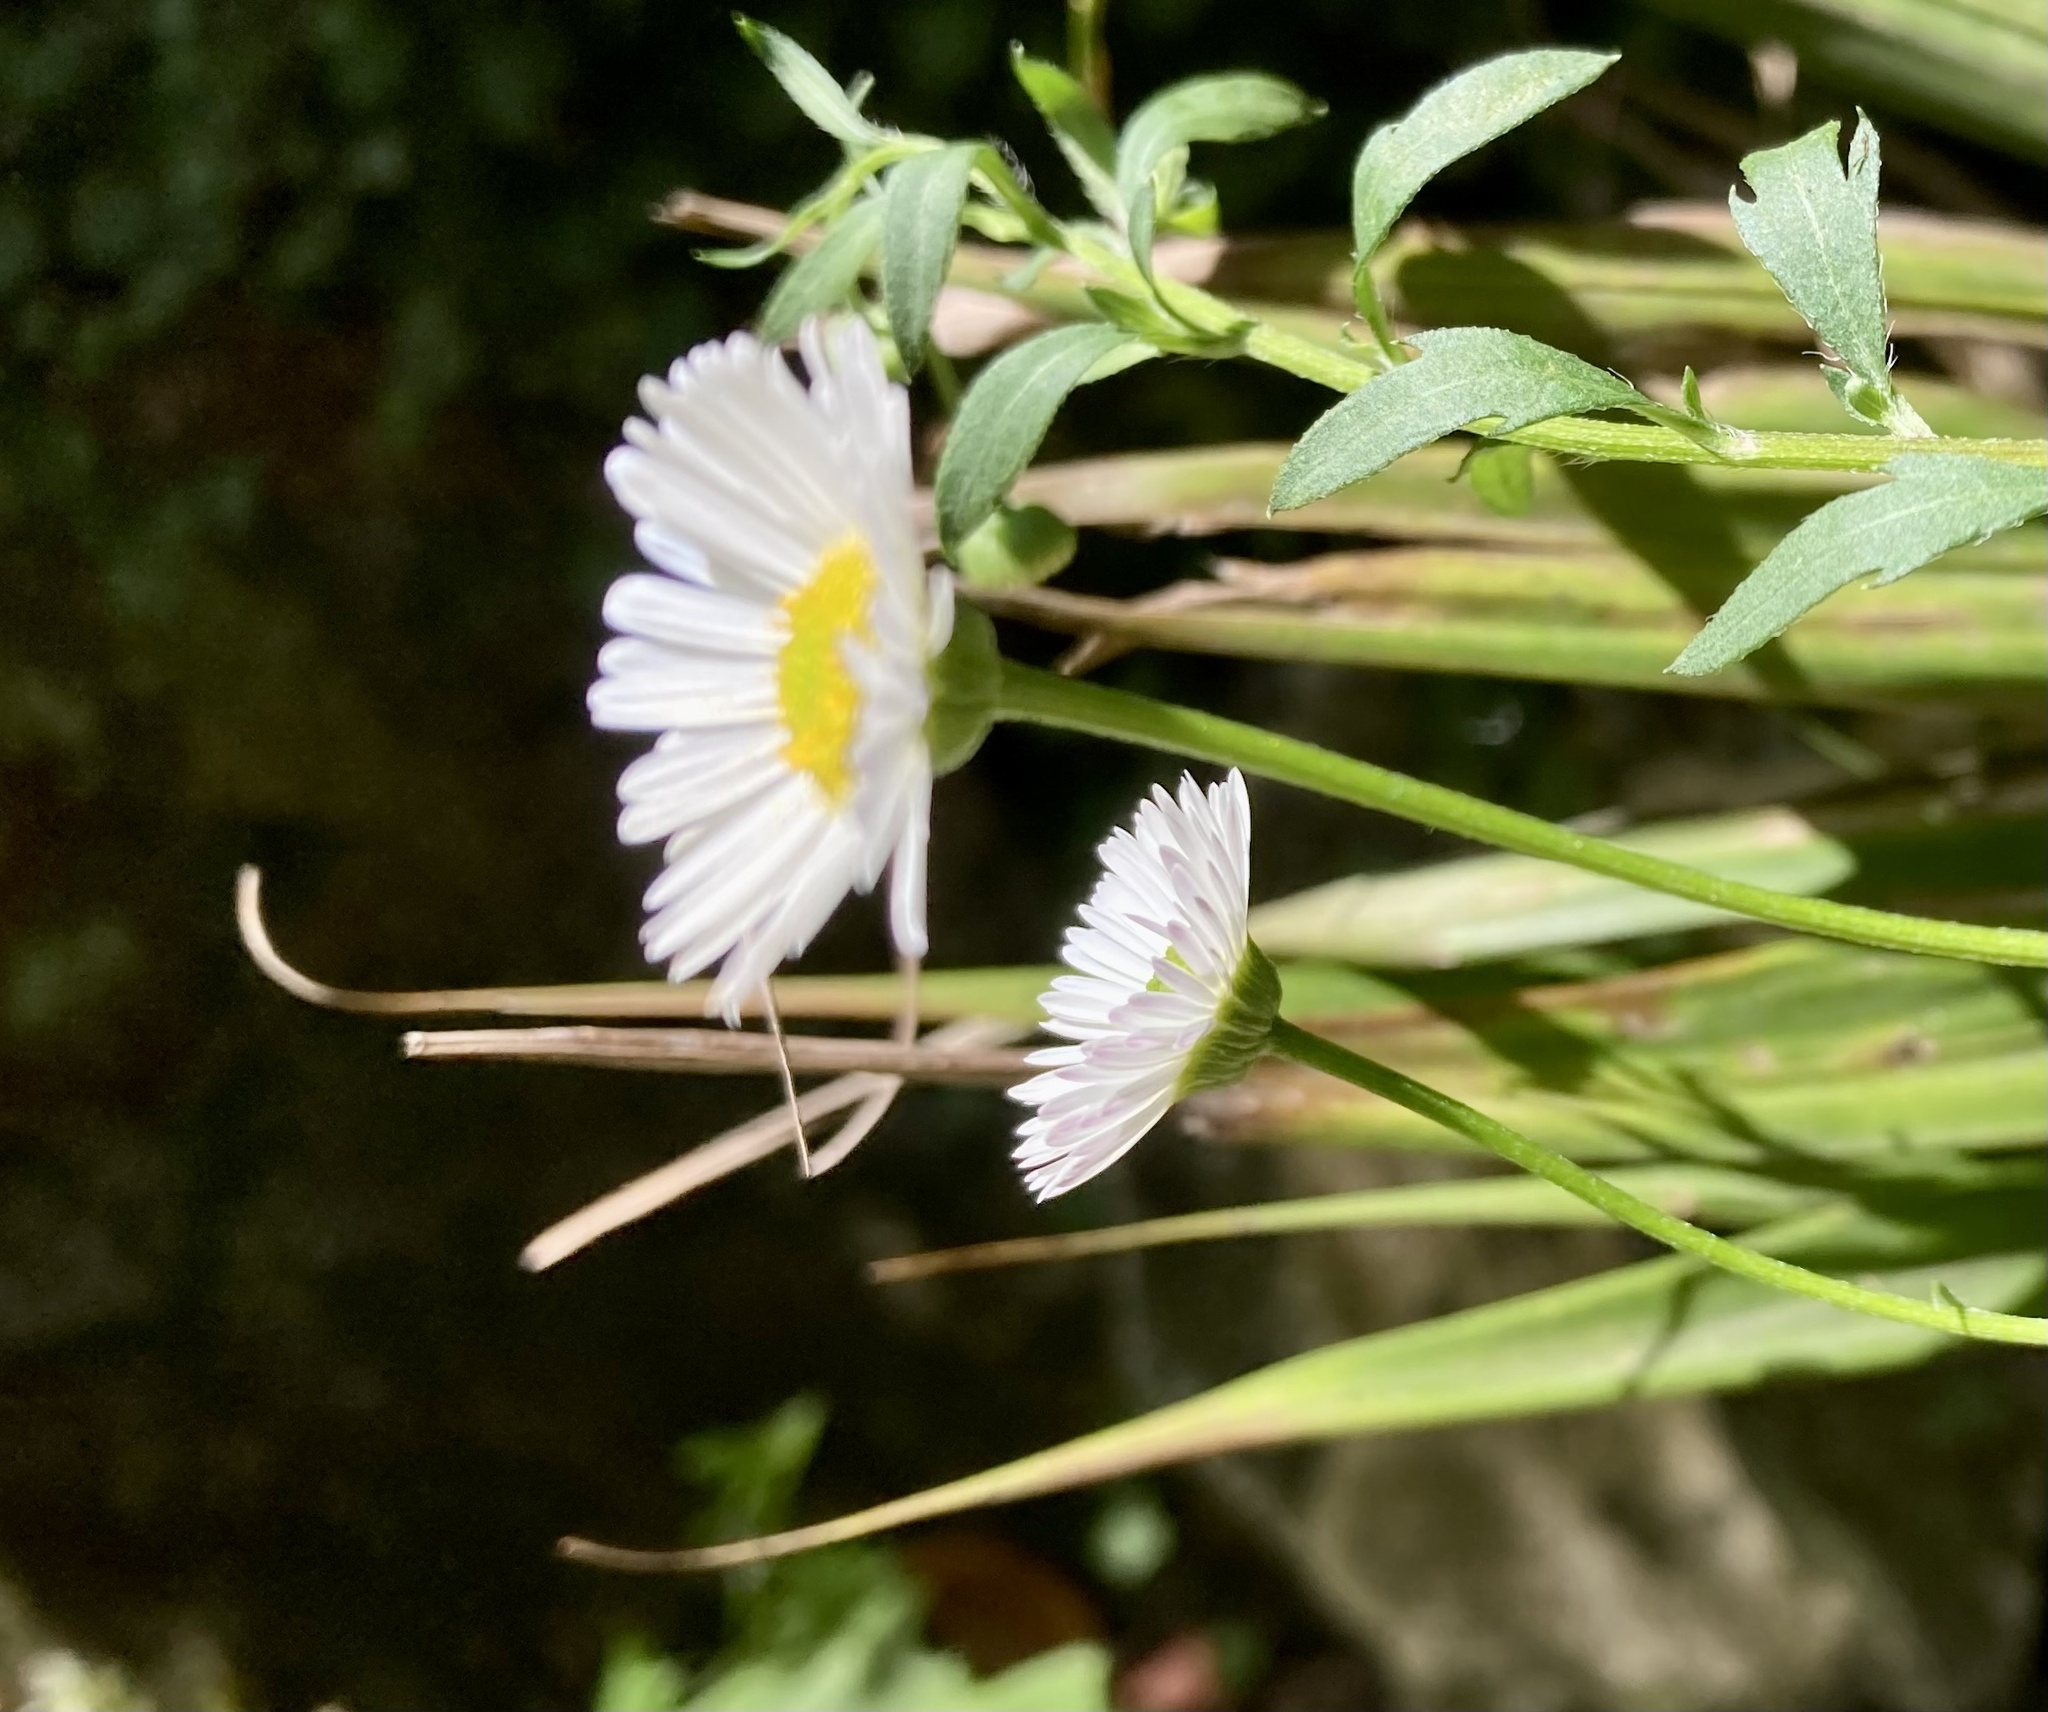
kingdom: Plantae
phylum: Tracheophyta
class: Magnoliopsida
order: Asterales
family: Asteraceae
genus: Erigeron
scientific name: Erigeron karvinskianus
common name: Mexican fleabane
